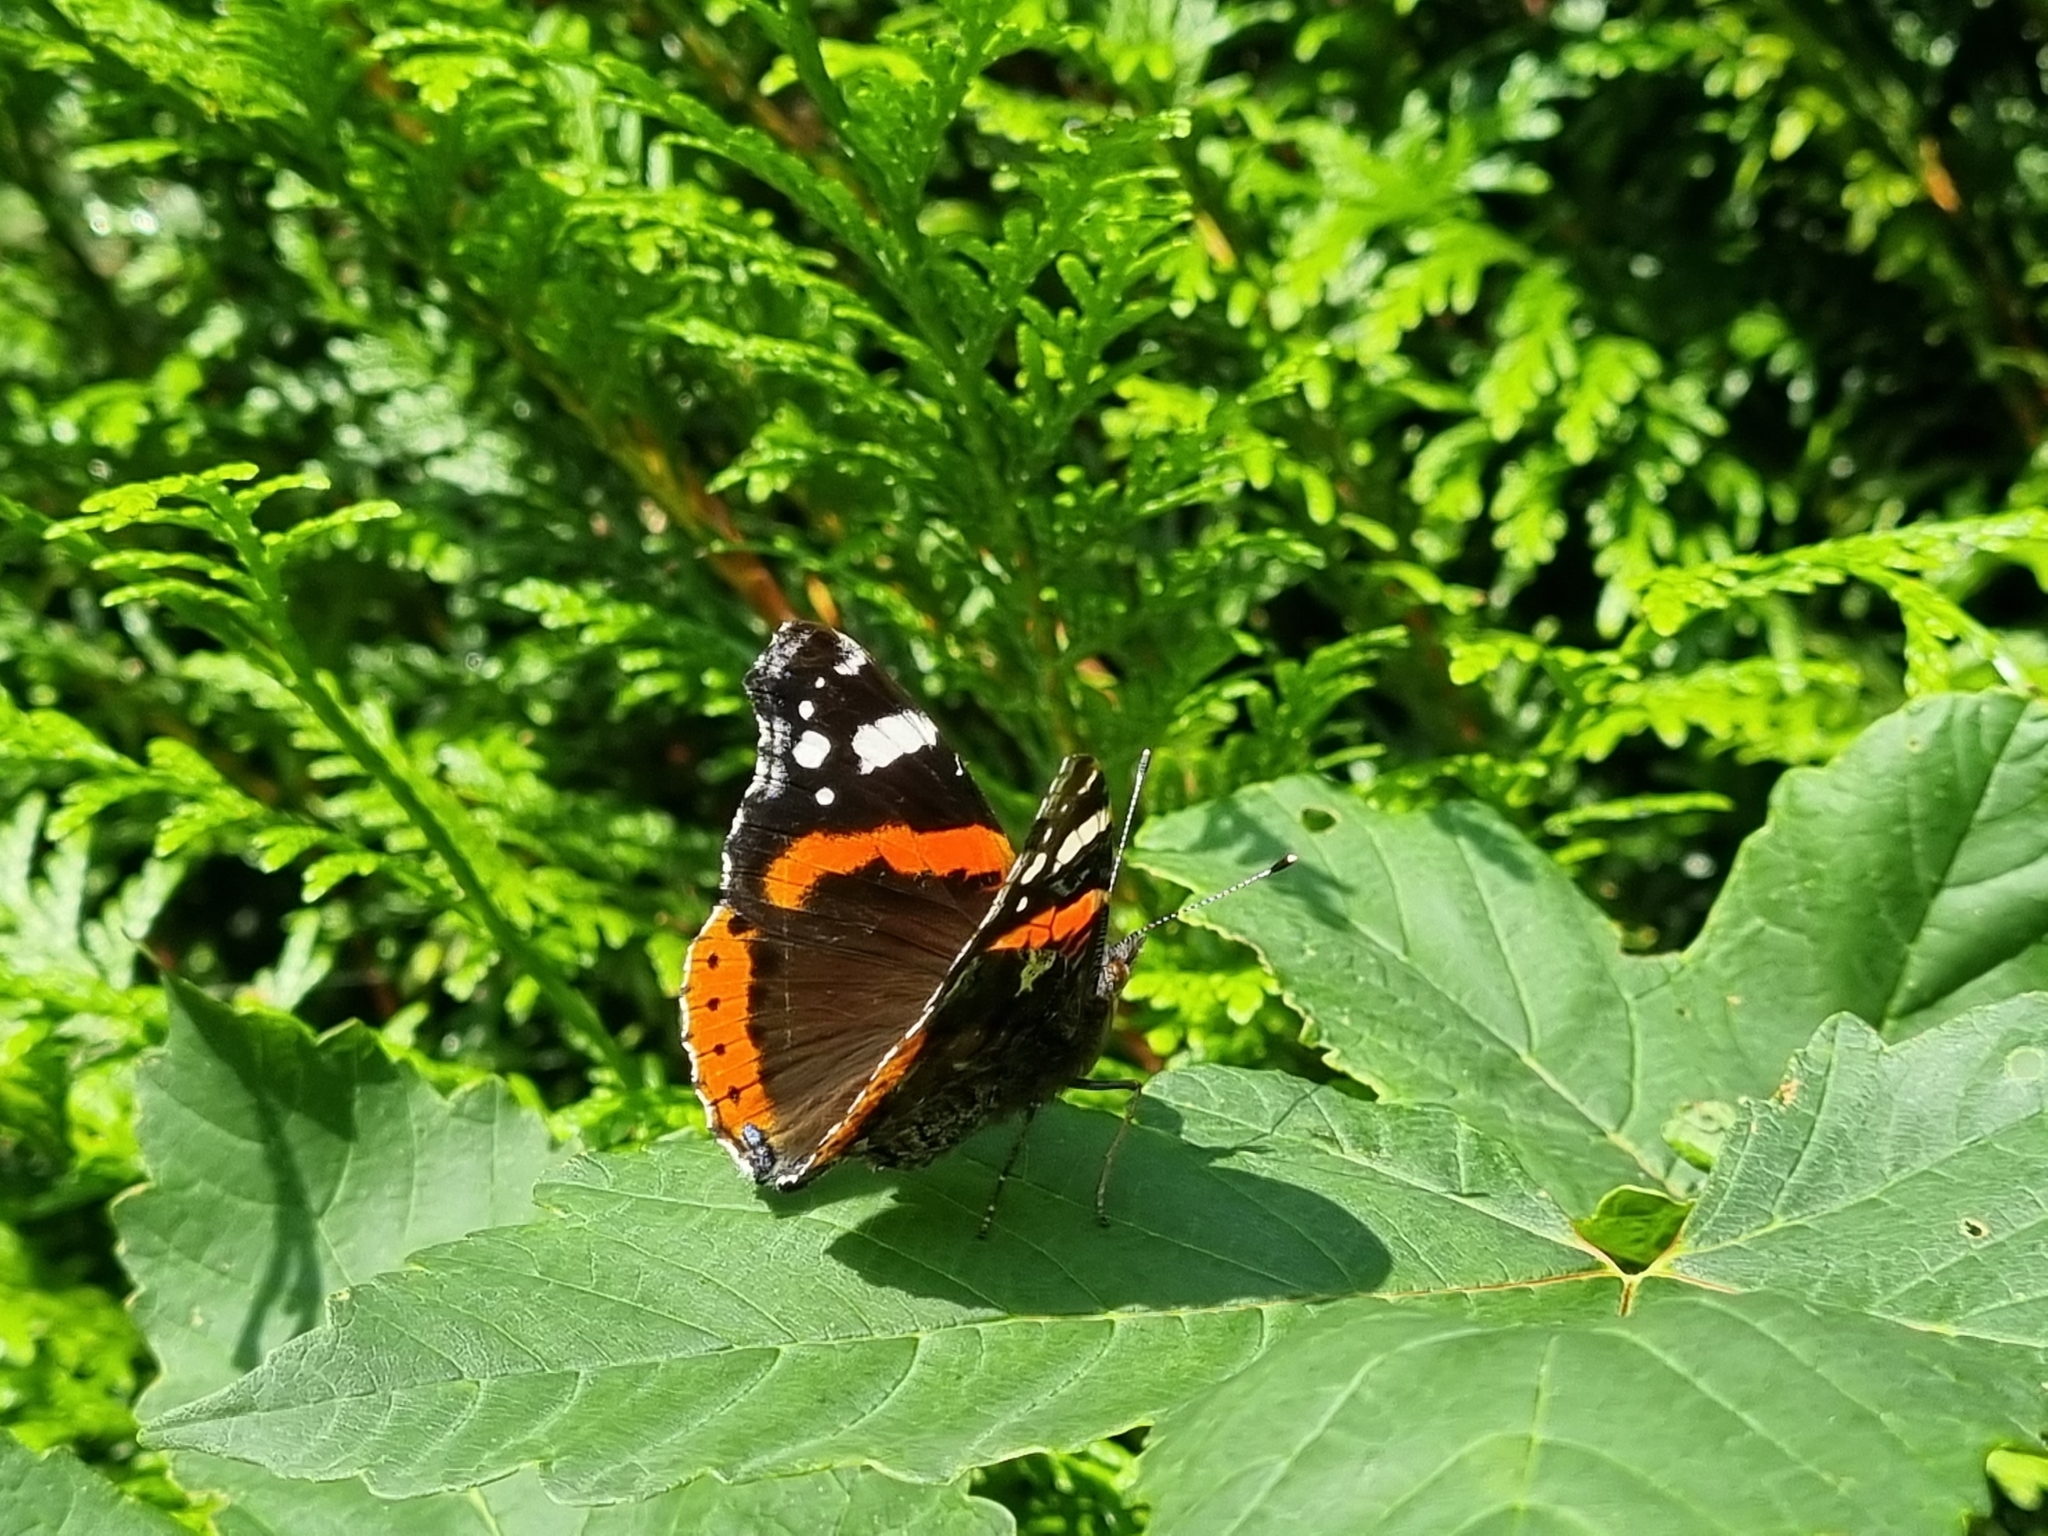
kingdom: Animalia
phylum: Arthropoda
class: Insecta
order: Lepidoptera
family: Nymphalidae
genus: Vanessa
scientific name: Vanessa atalanta
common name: Red admiral
